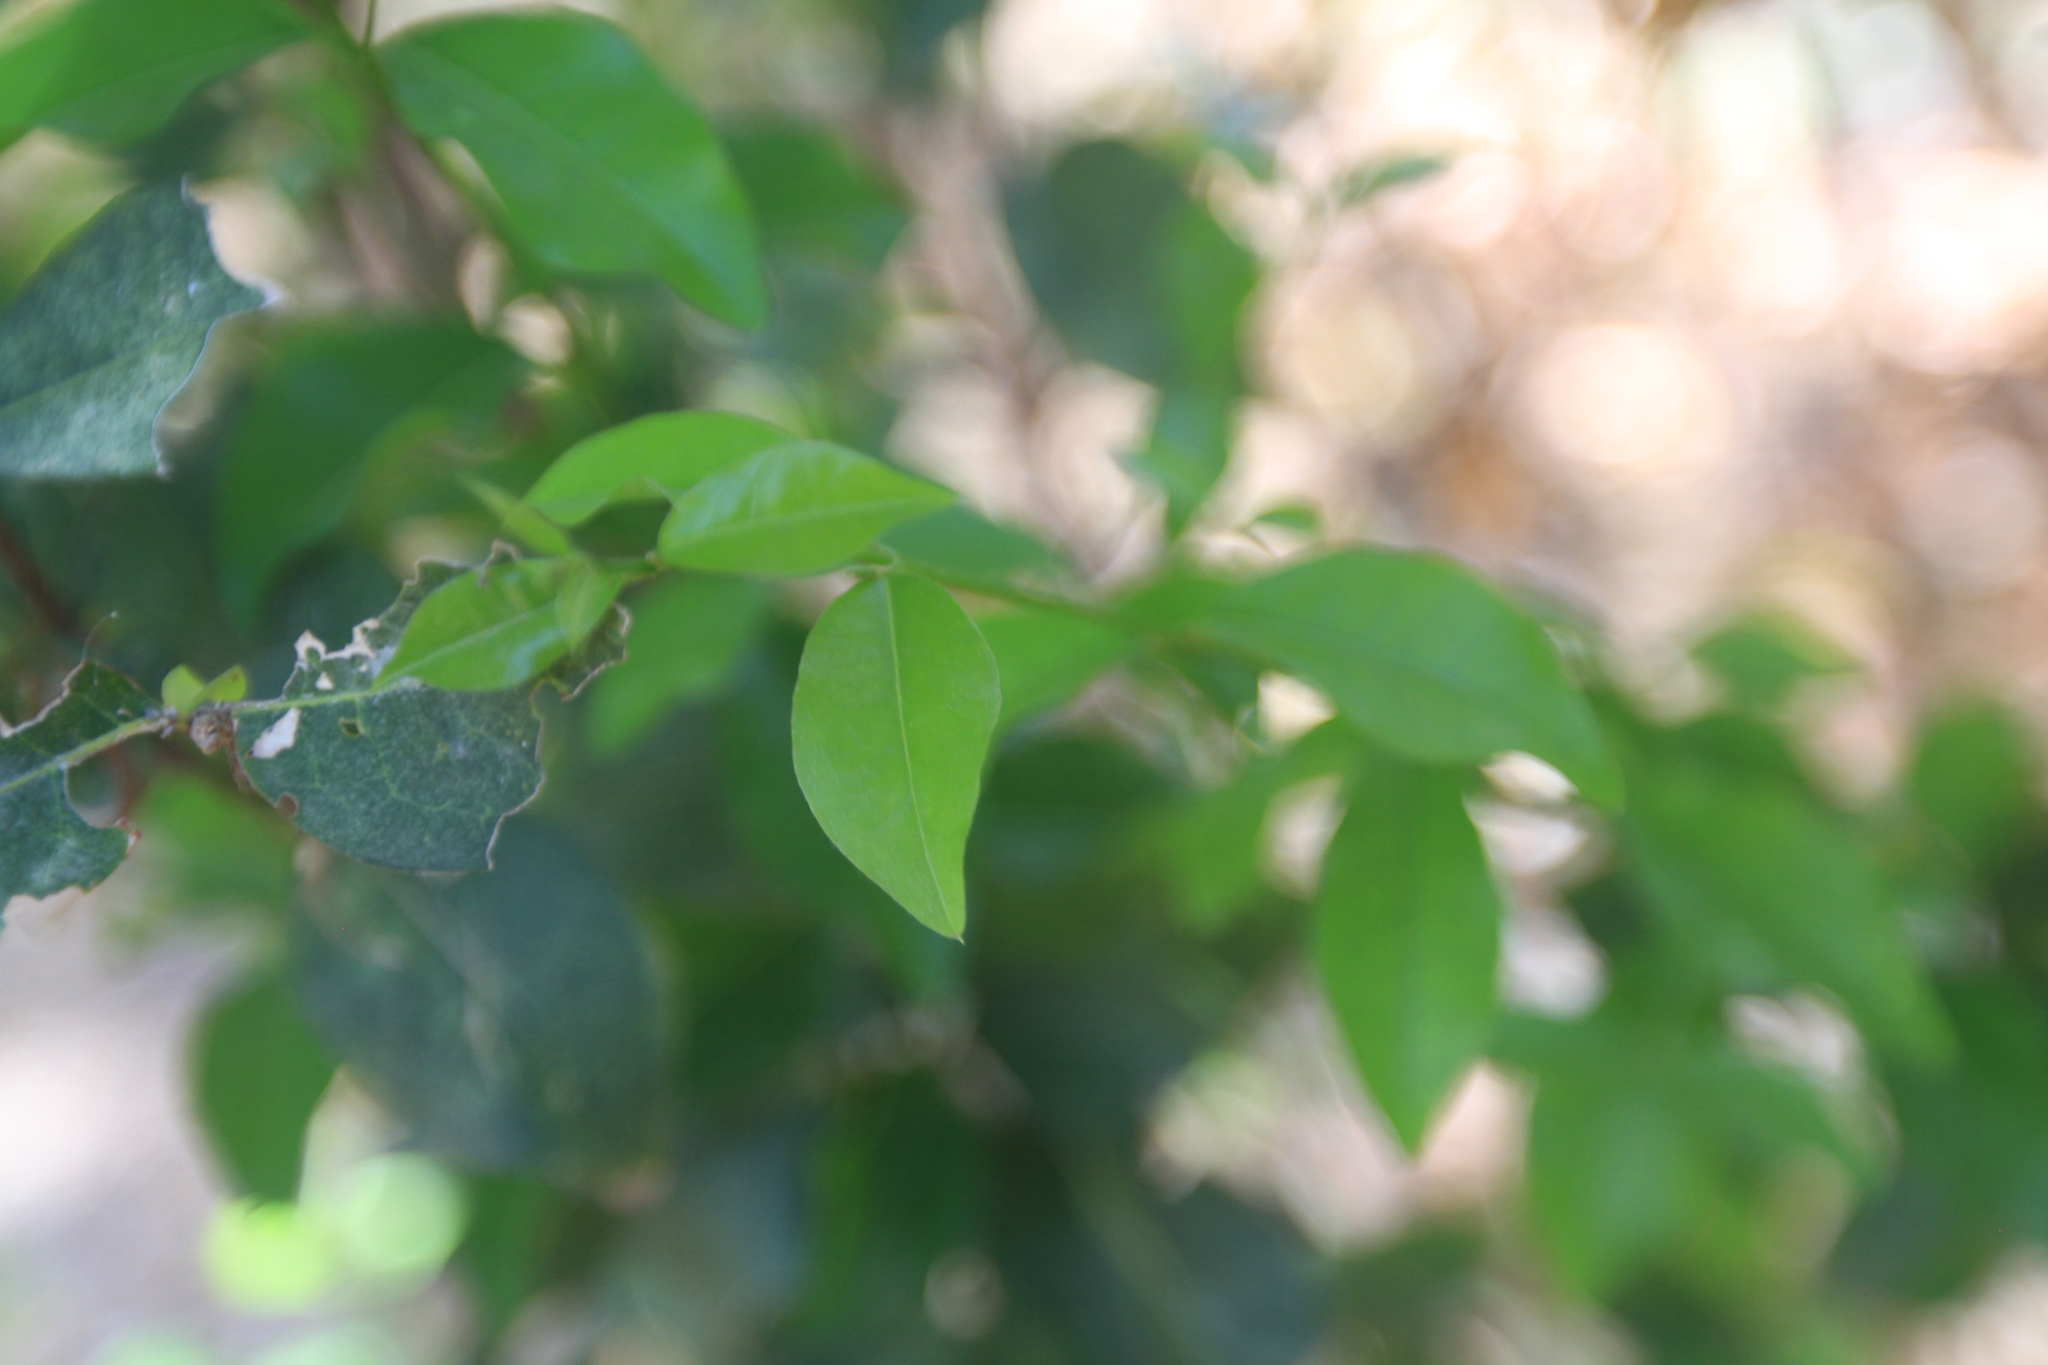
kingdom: Plantae
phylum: Tracheophyta
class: Magnoliopsida
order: Malpighiales
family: Malpighiaceae
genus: Malpighia
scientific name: Malpighia emarginata
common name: Barbados cherry
